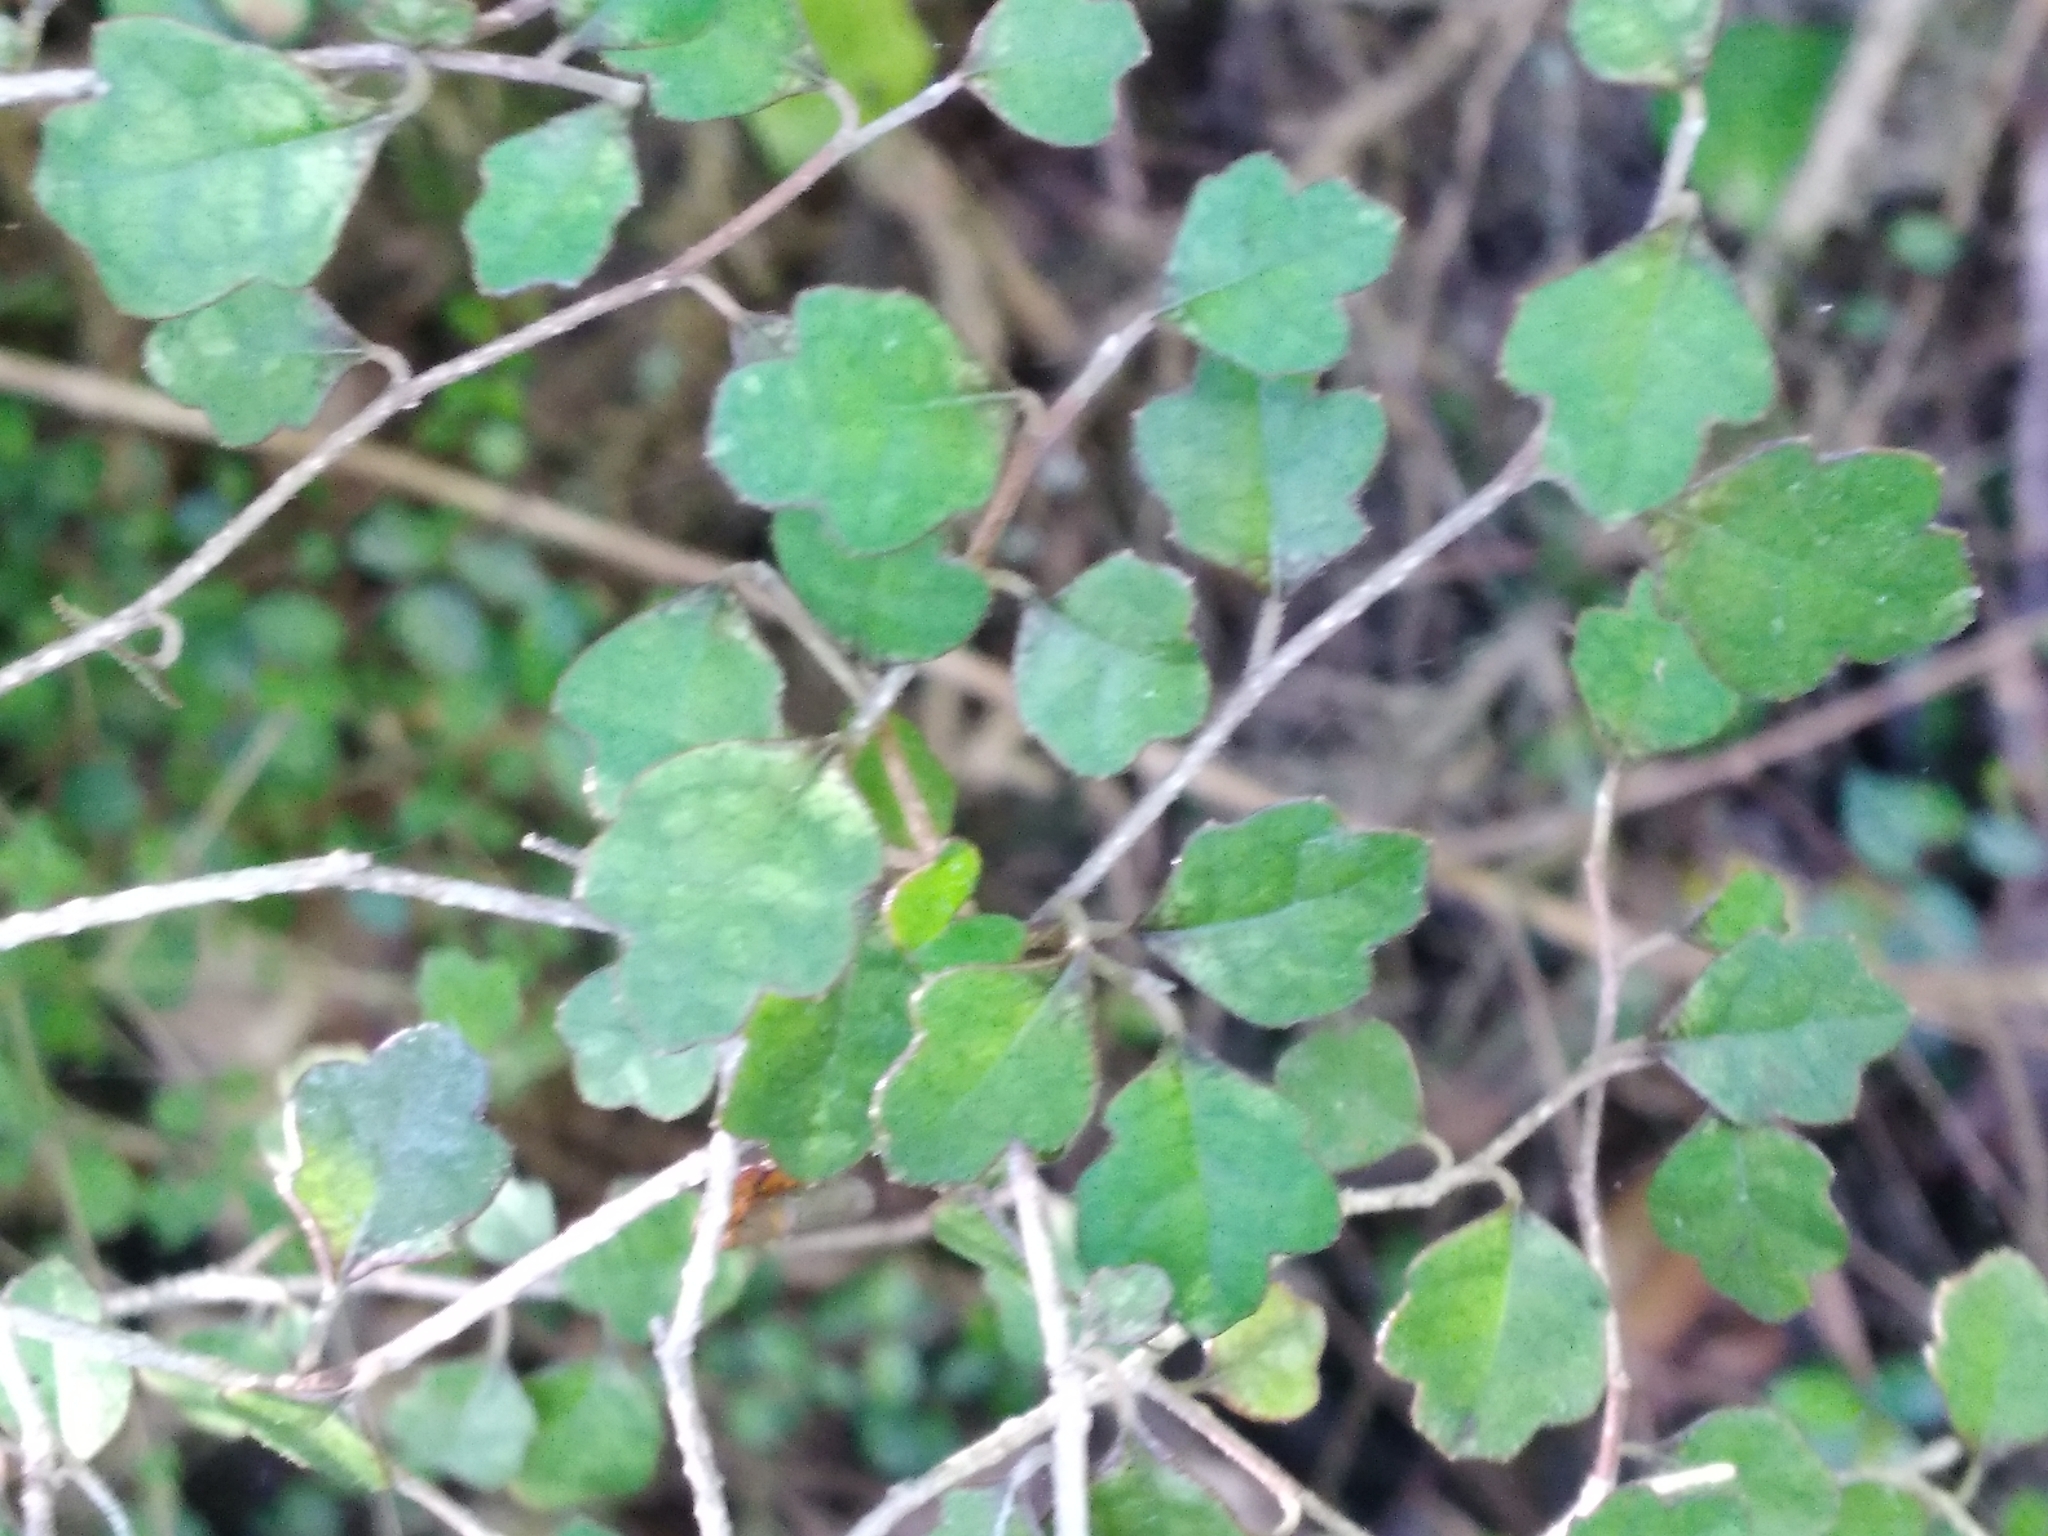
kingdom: Plantae
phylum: Tracheophyta
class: Magnoliopsida
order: Apiales
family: Pennantiaceae
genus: Pennantia
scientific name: Pennantia corymbosa
